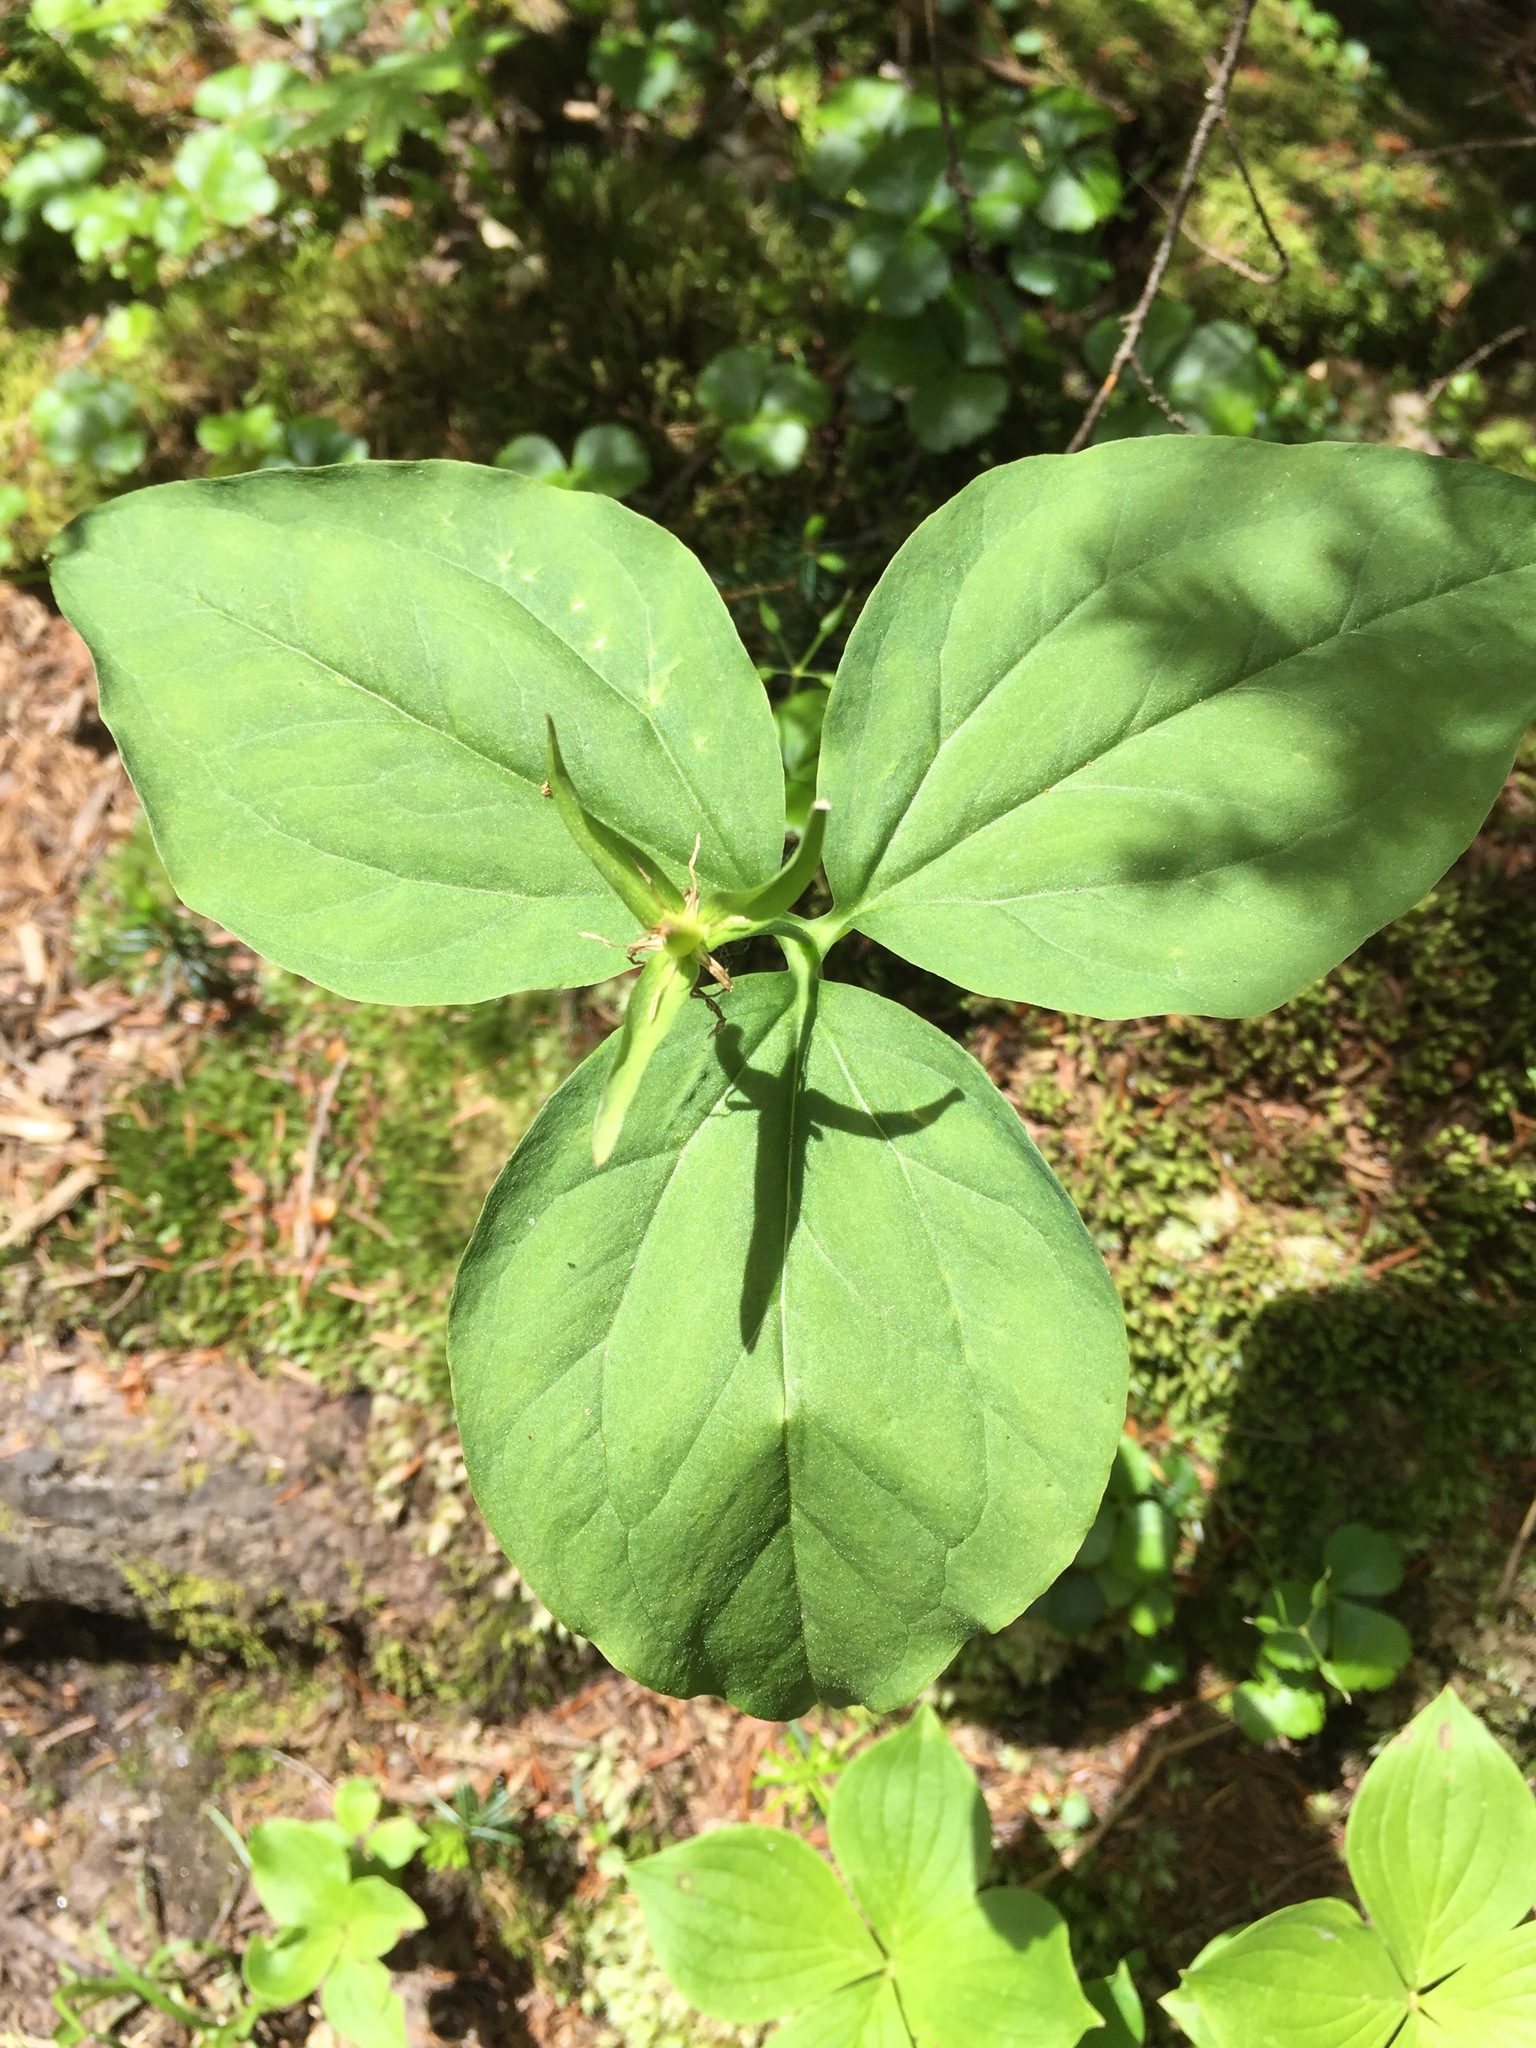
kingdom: Plantae
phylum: Tracheophyta
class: Liliopsida
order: Liliales
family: Melanthiaceae
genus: Trillium
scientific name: Trillium undulatum
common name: Paint trillium
